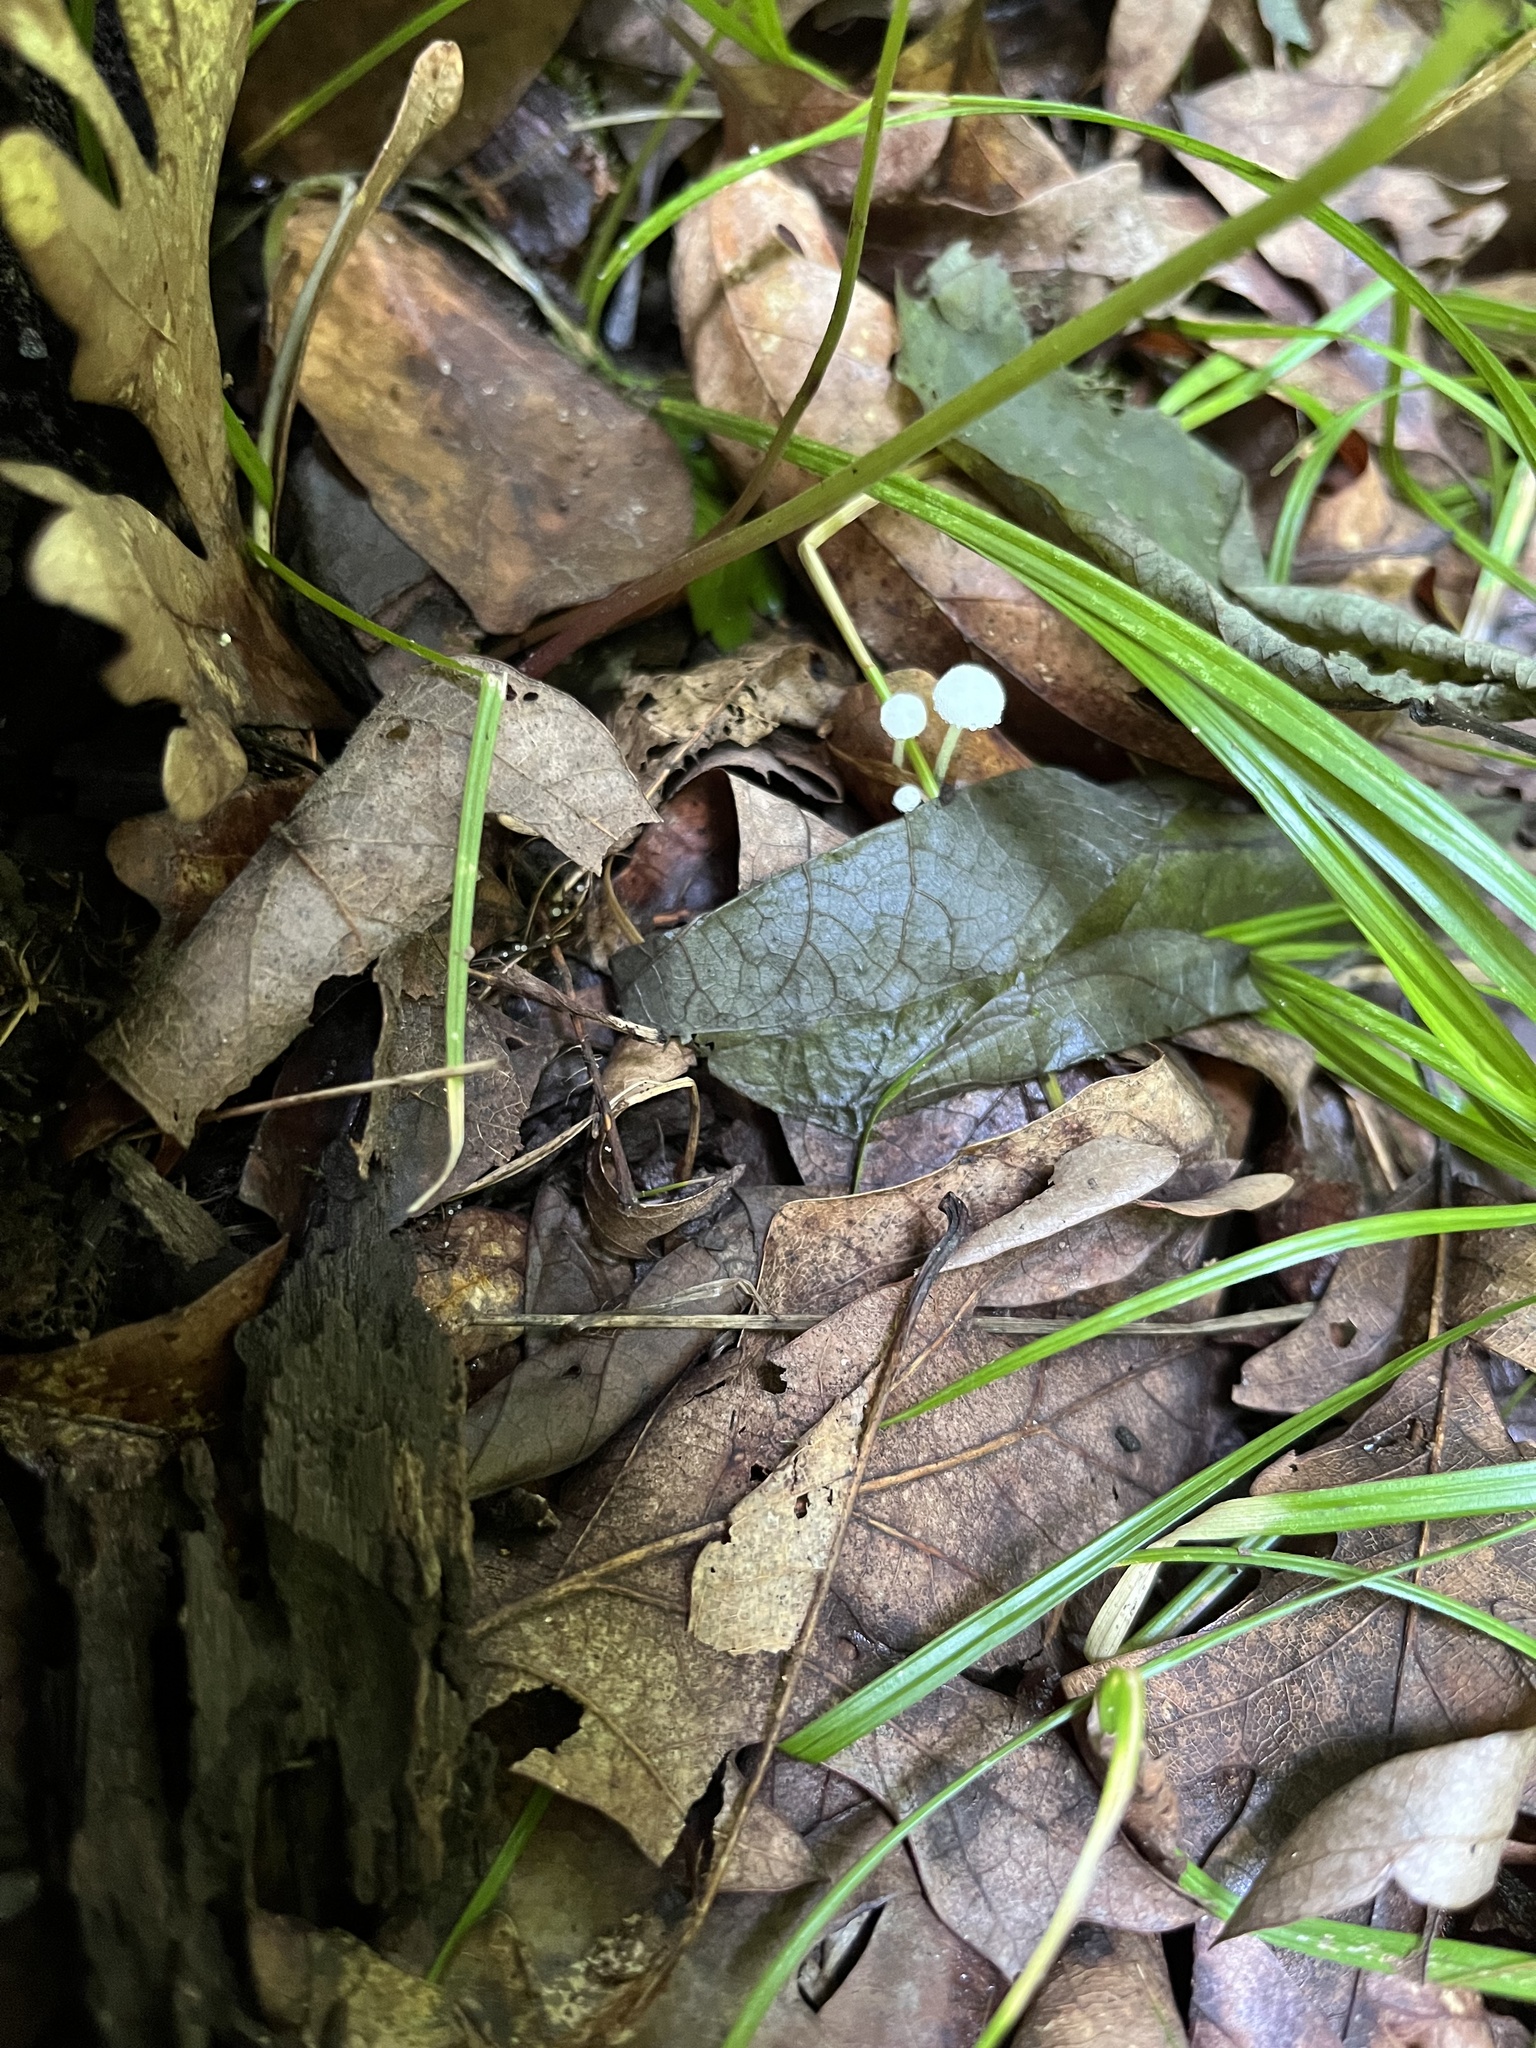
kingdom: Fungi
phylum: Basidiomycota
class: Agaricomycetes
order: Agaricales
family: Marasmiaceae
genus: Tetrapyrgos
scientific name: Tetrapyrgos nigripes
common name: Black-stalked marasmius
